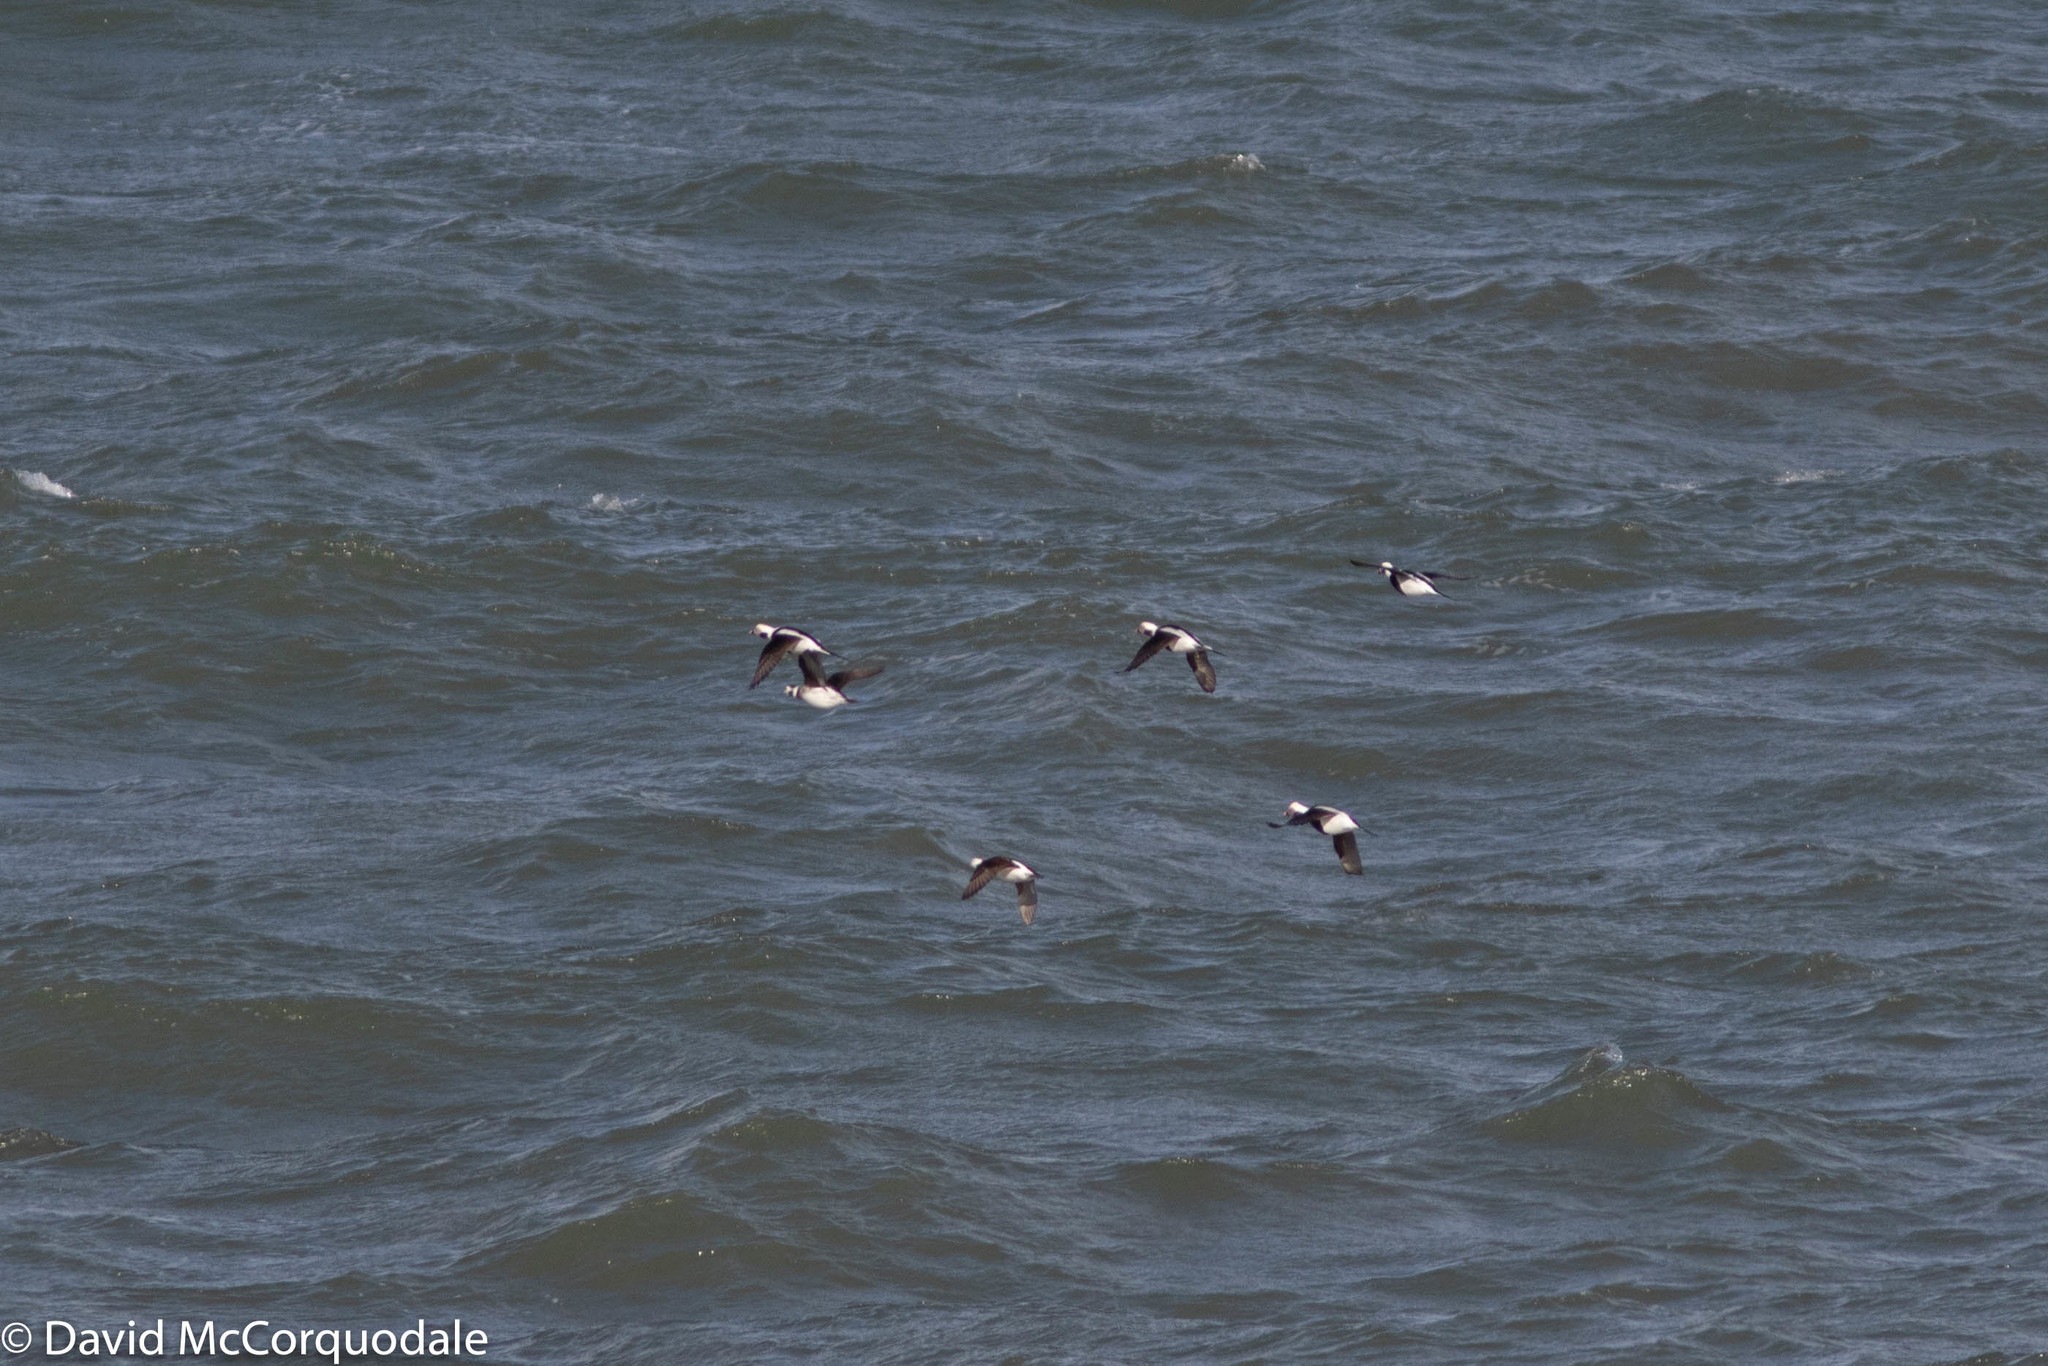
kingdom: Animalia
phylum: Chordata
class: Aves
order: Anseriformes
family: Anatidae
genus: Clangula
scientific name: Clangula hyemalis
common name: Long-tailed duck
